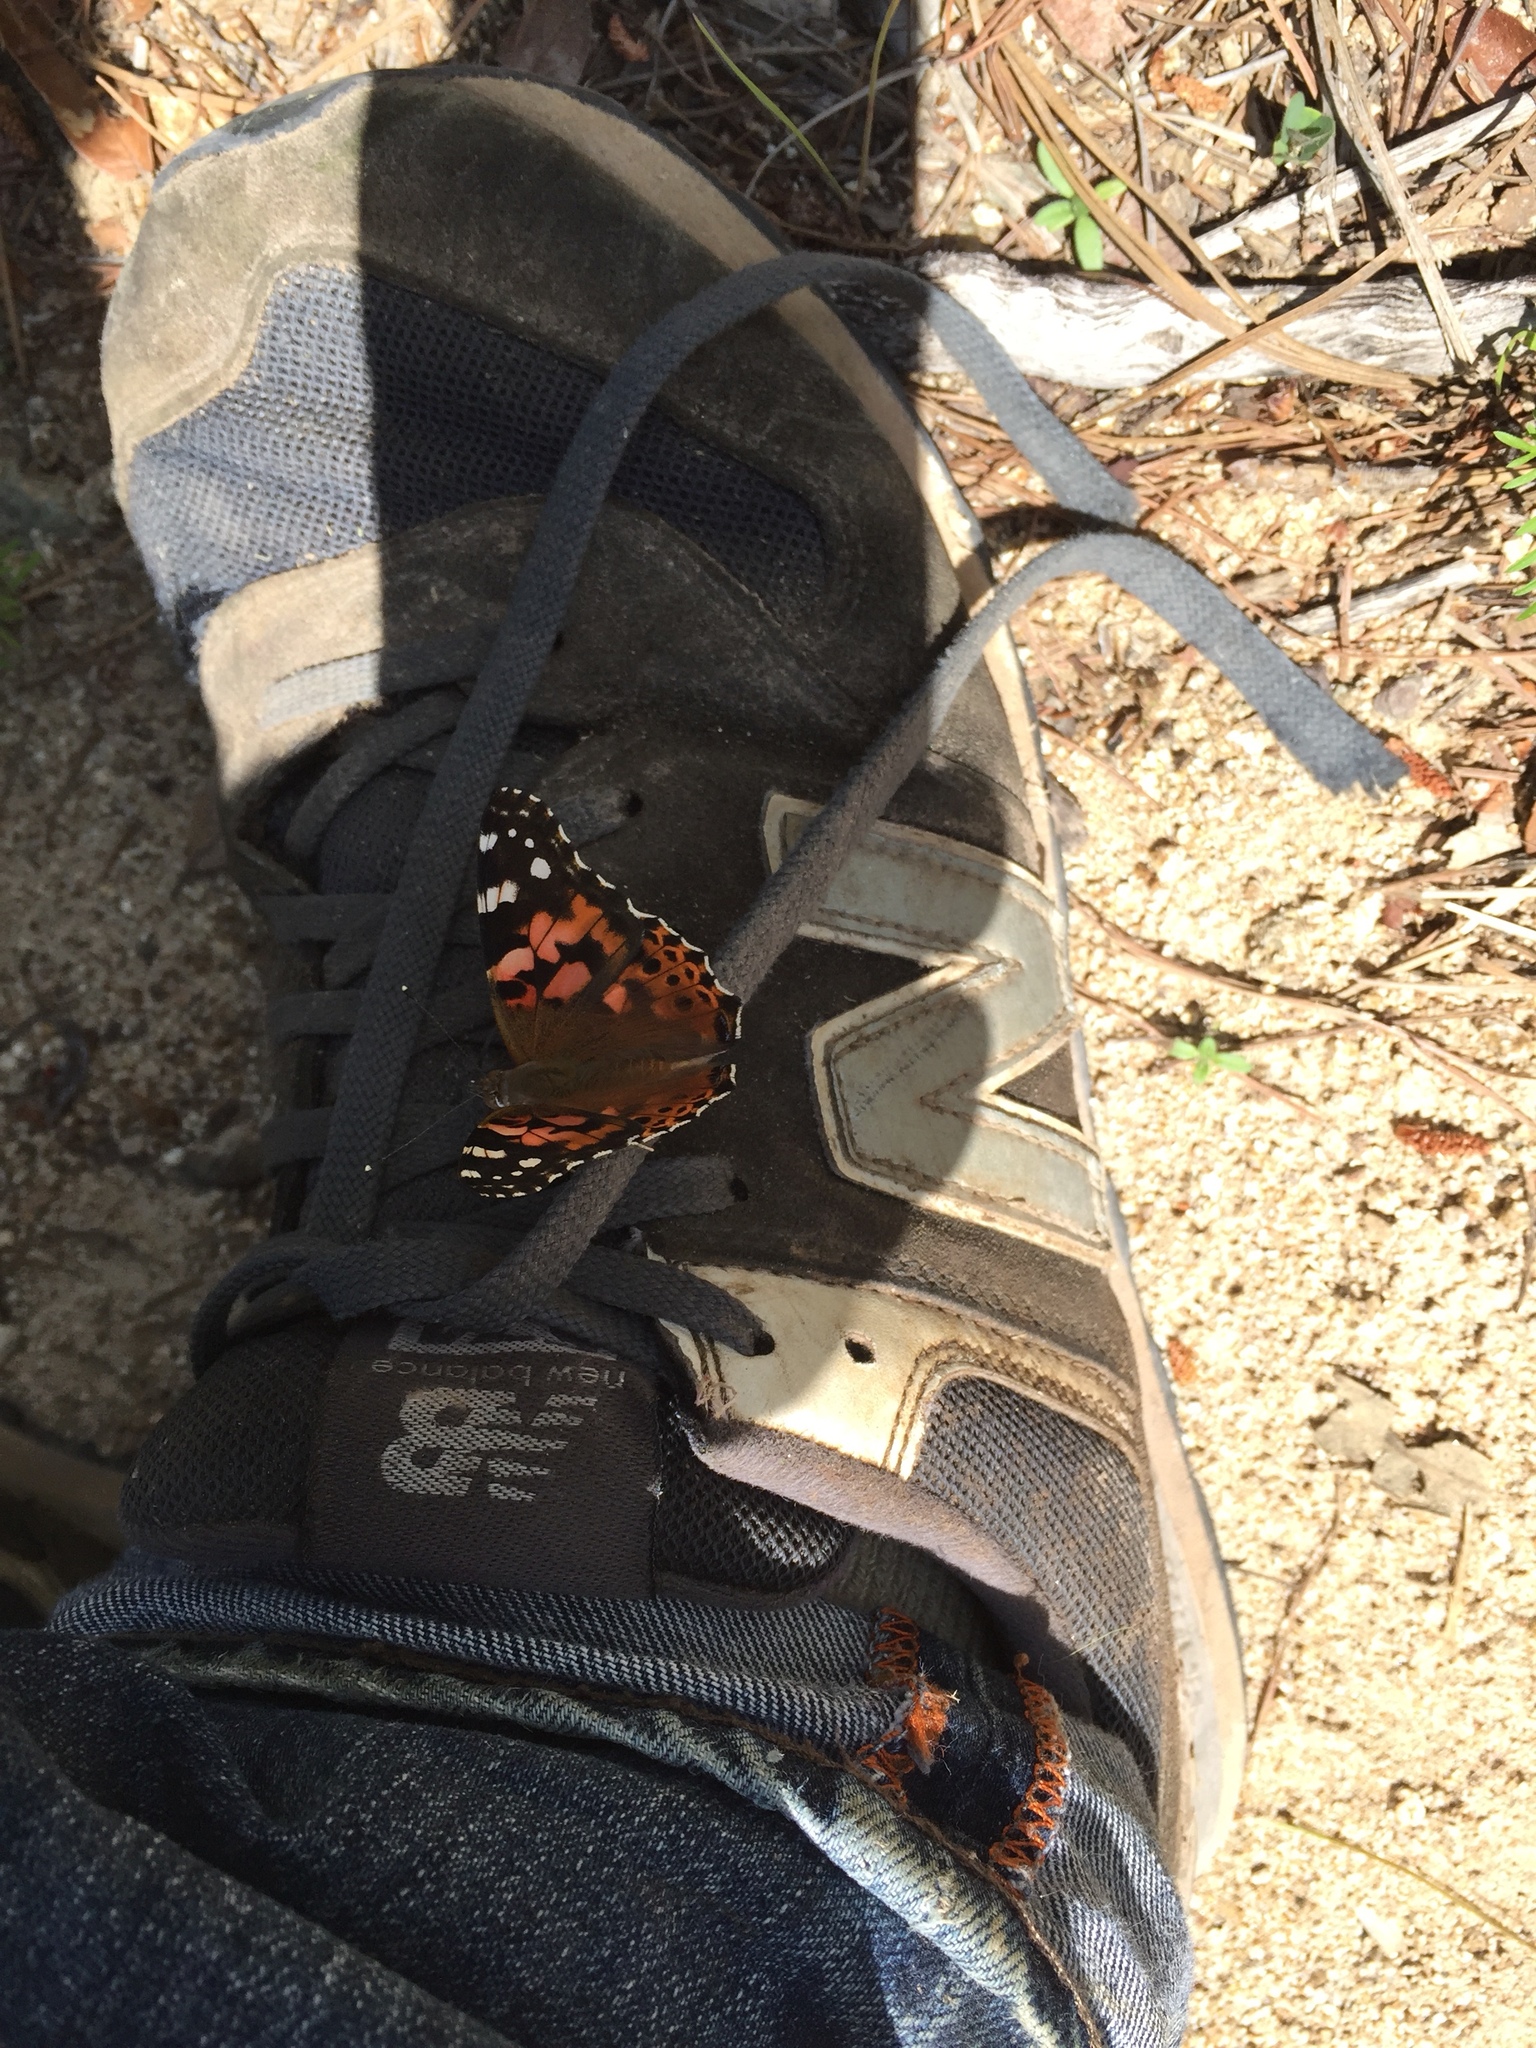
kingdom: Animalia
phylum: Arthropoda
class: Insecta
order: Lepidoptera
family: Nymphalidae
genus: Vanessa
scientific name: Vanessa cardui
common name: Painted lady
